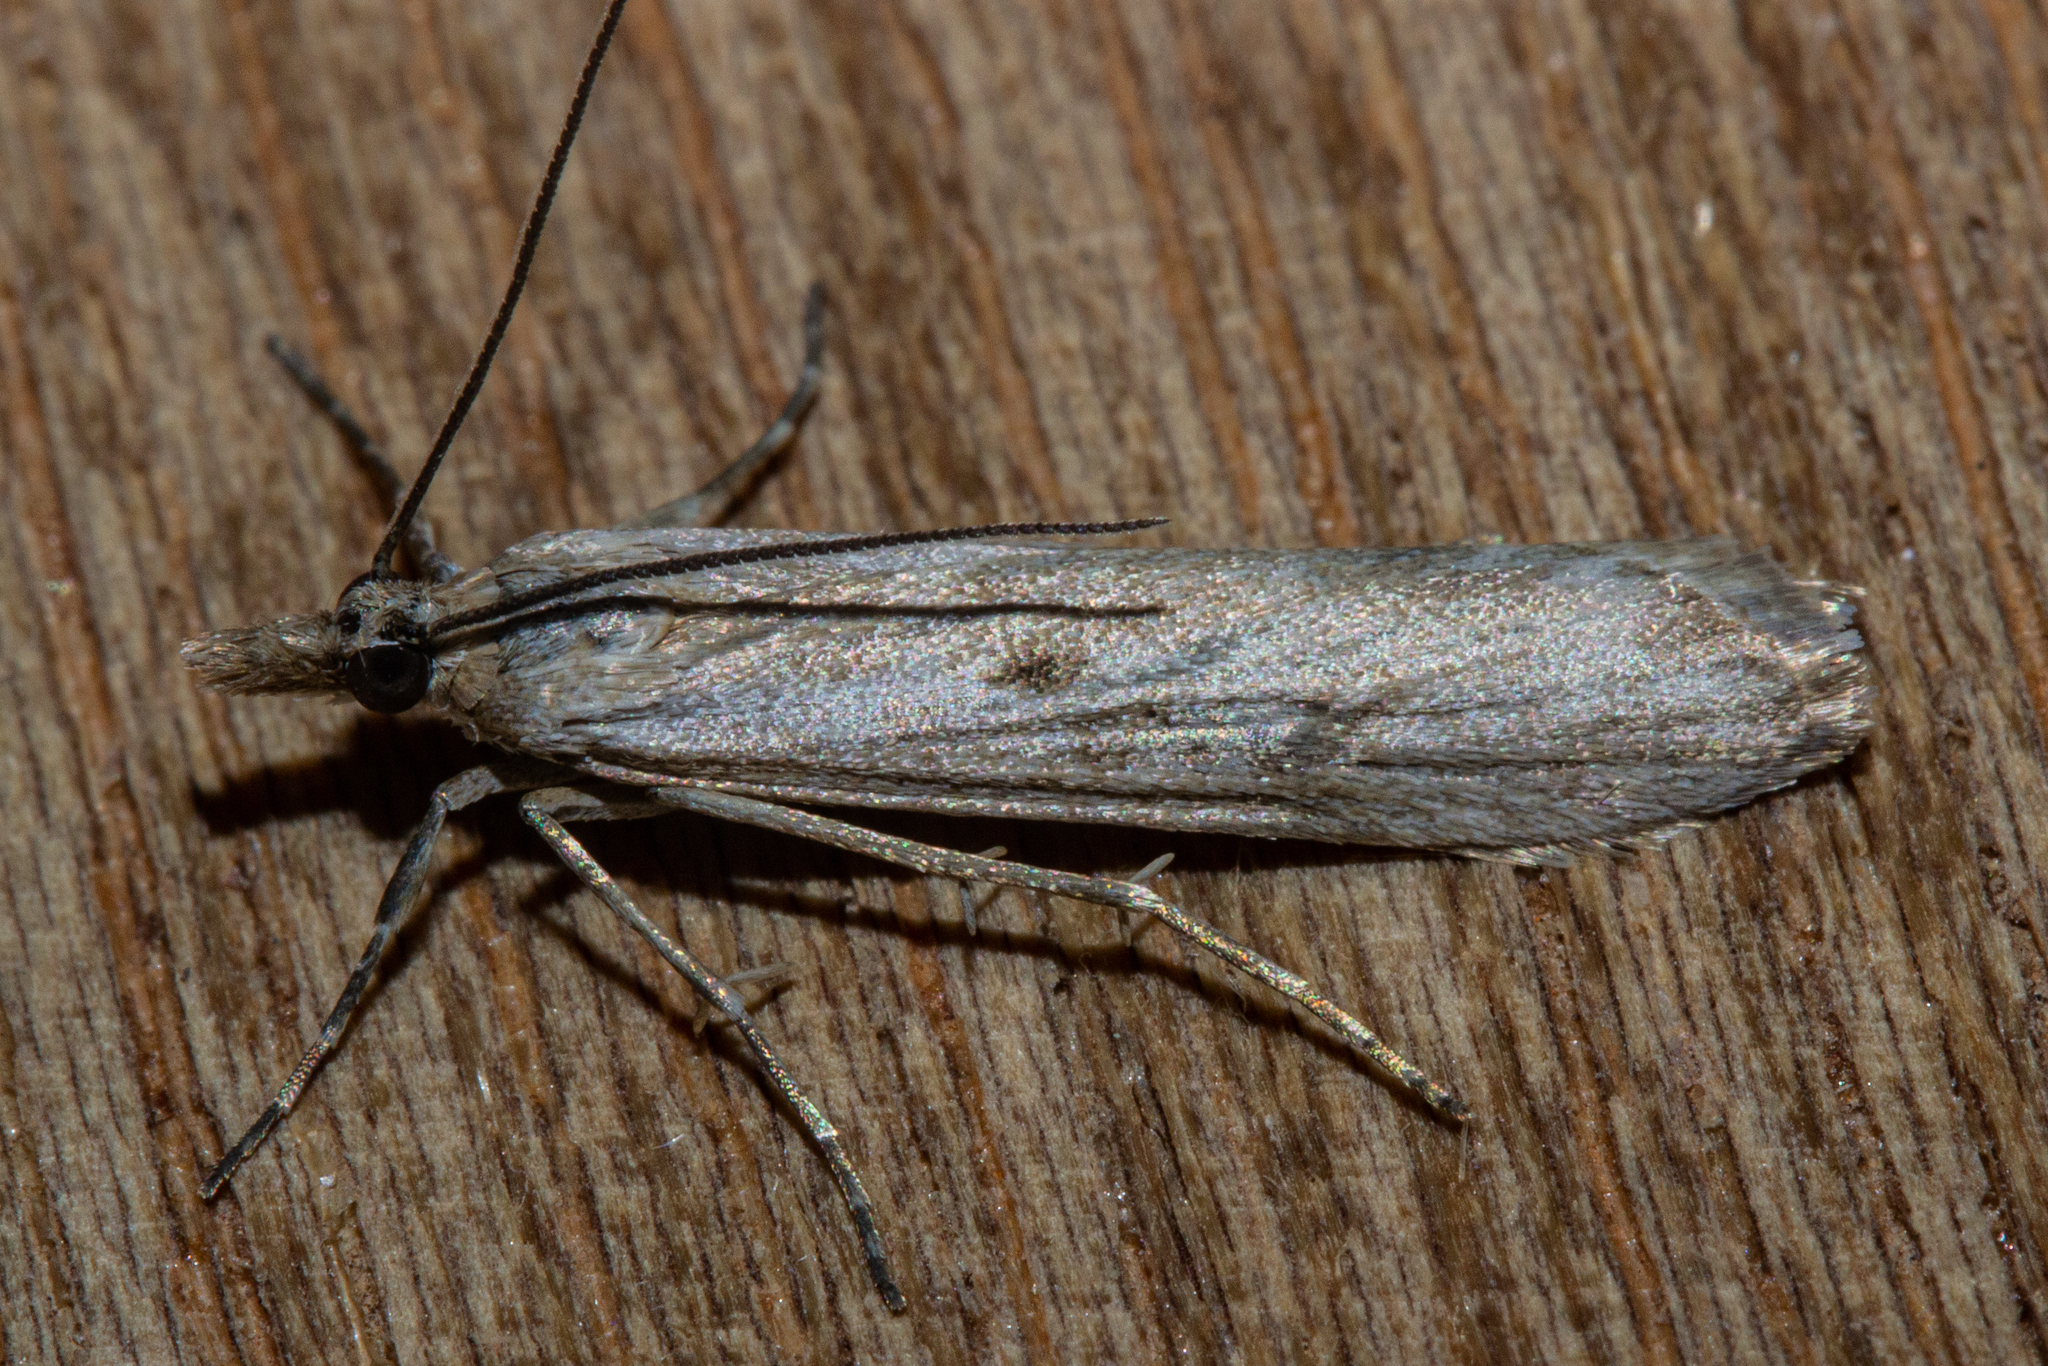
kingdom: Animalia
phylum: Arthropoda
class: Insecta
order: Lepidoptera
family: Crambidae
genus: Eudonia
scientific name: Eudonia leptalea
